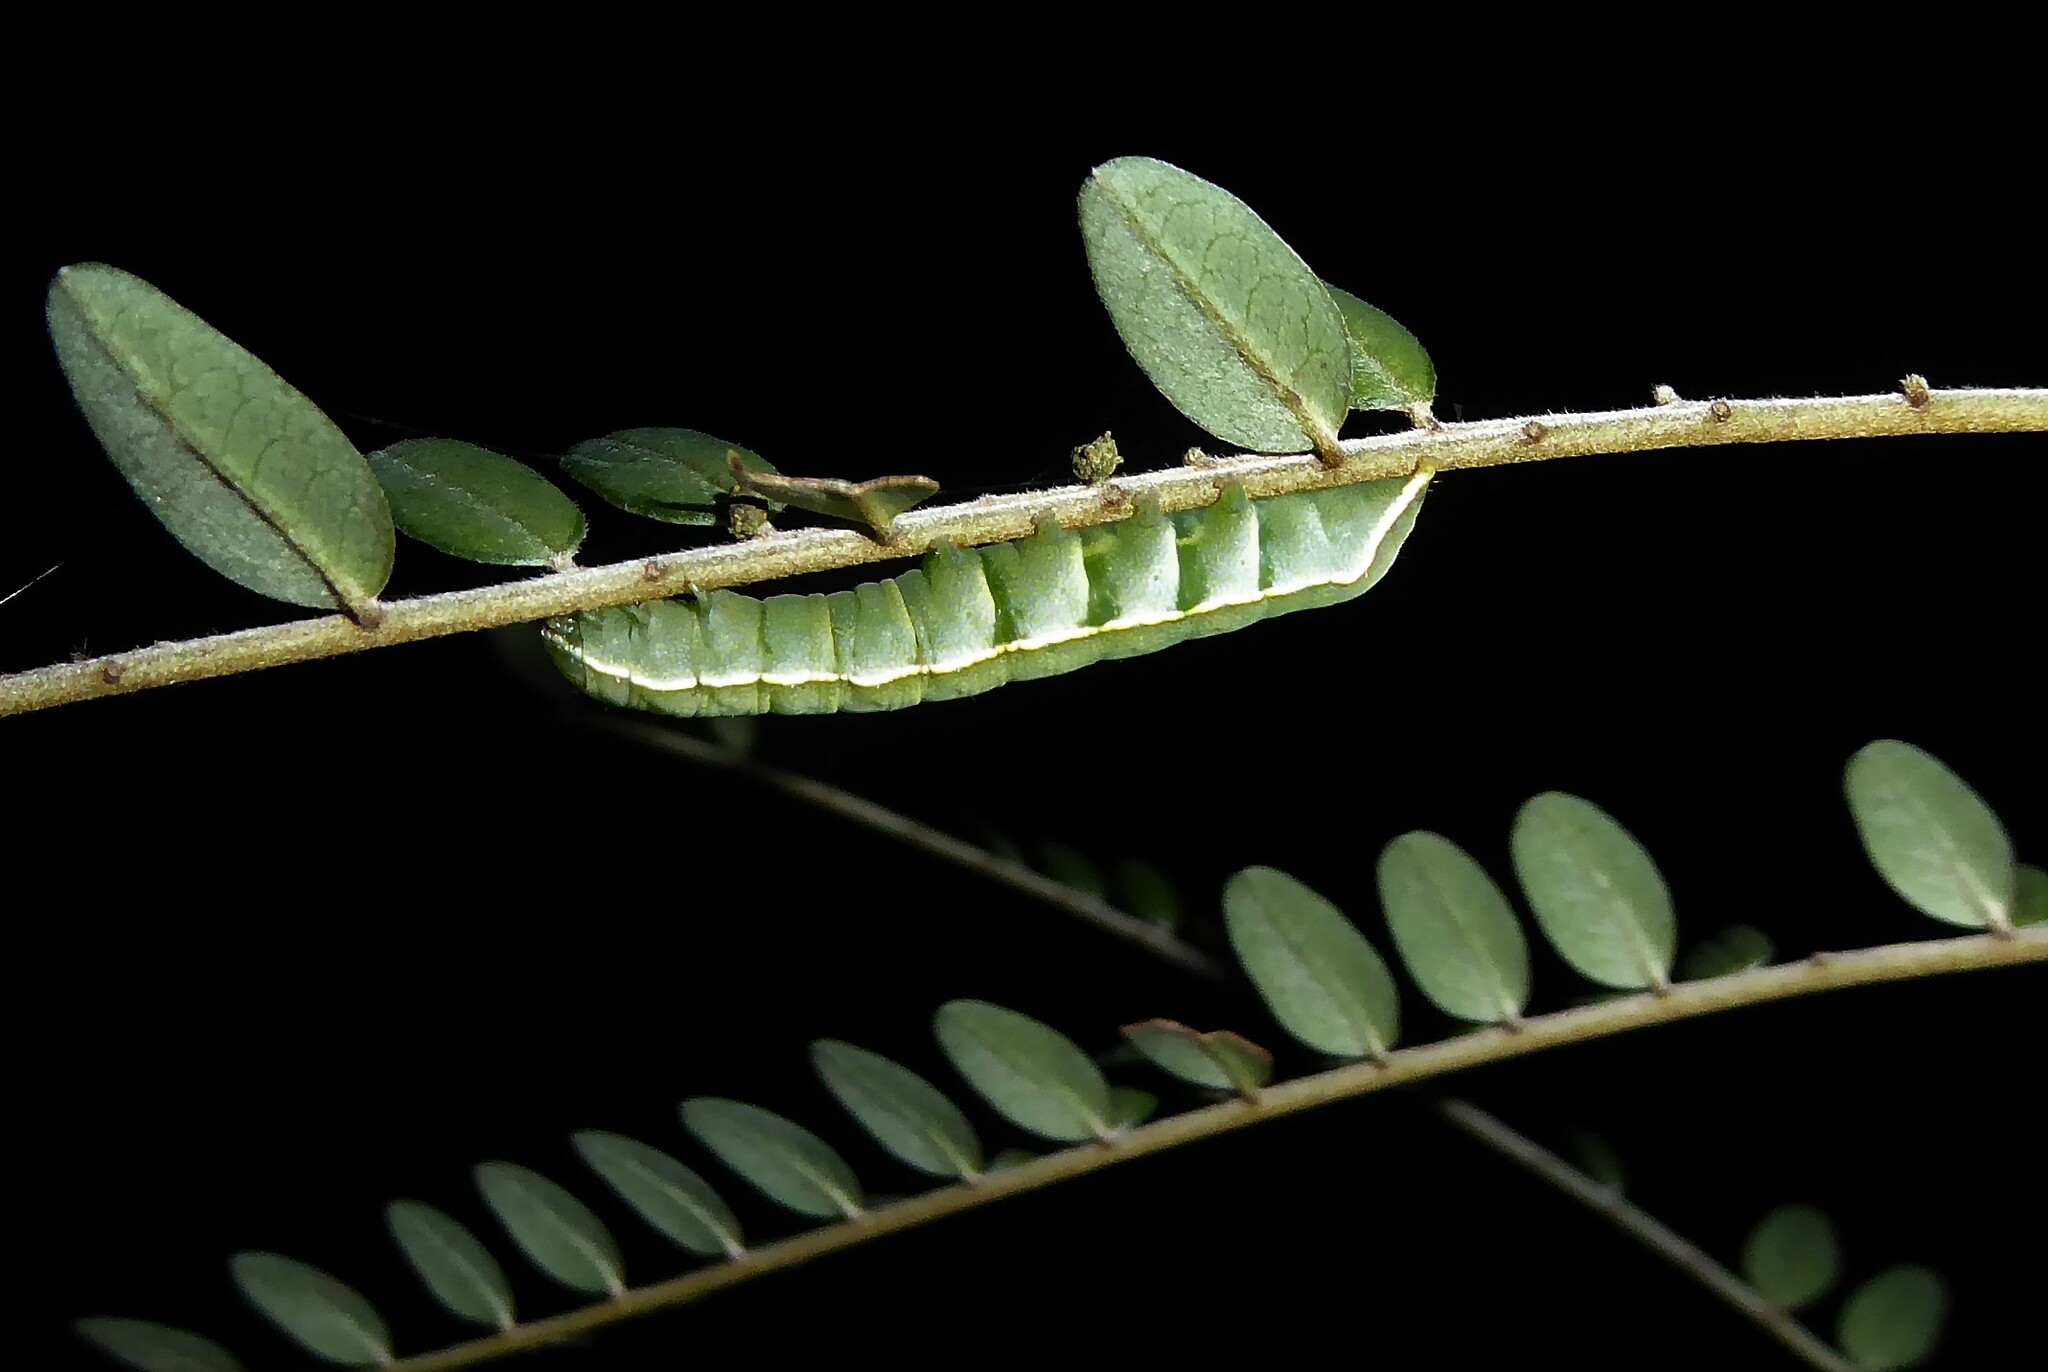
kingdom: Animalia
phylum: Arthropoda
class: Insecta
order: Lepidoptera
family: Noctuidae
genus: Meterana
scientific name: Meterana decorata
